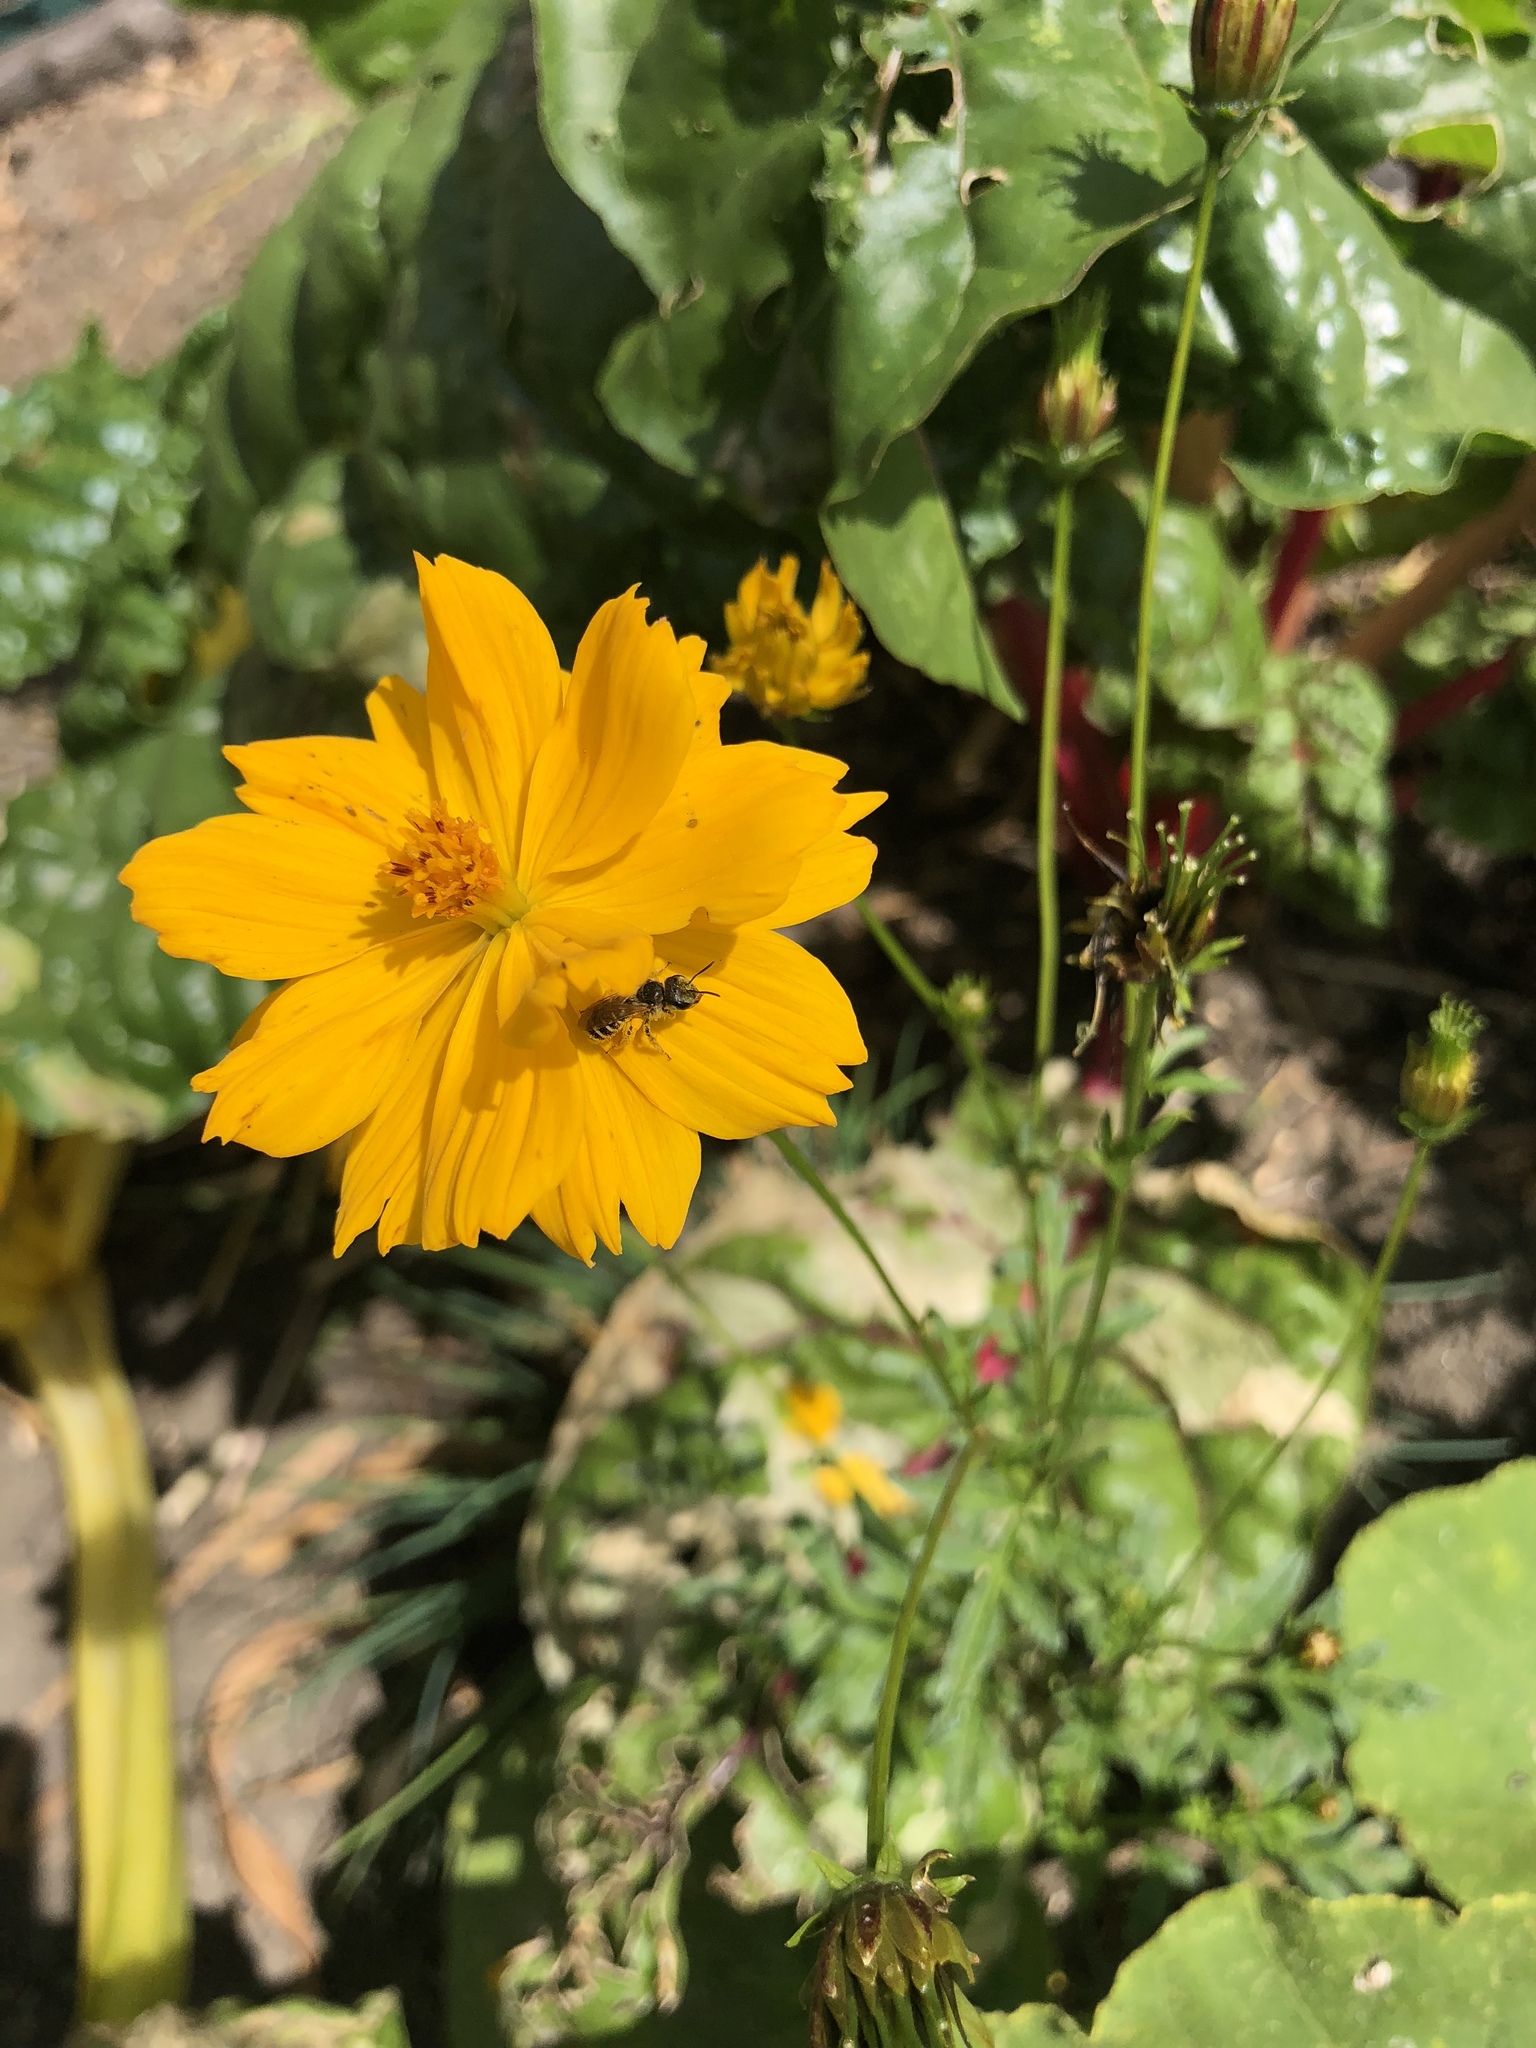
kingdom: Animalia
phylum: Arthropoda
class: Insecta
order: Hymenoptera
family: Halictidae
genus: Halictus
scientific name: Halictus ligatus
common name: Ligated furrow bee
